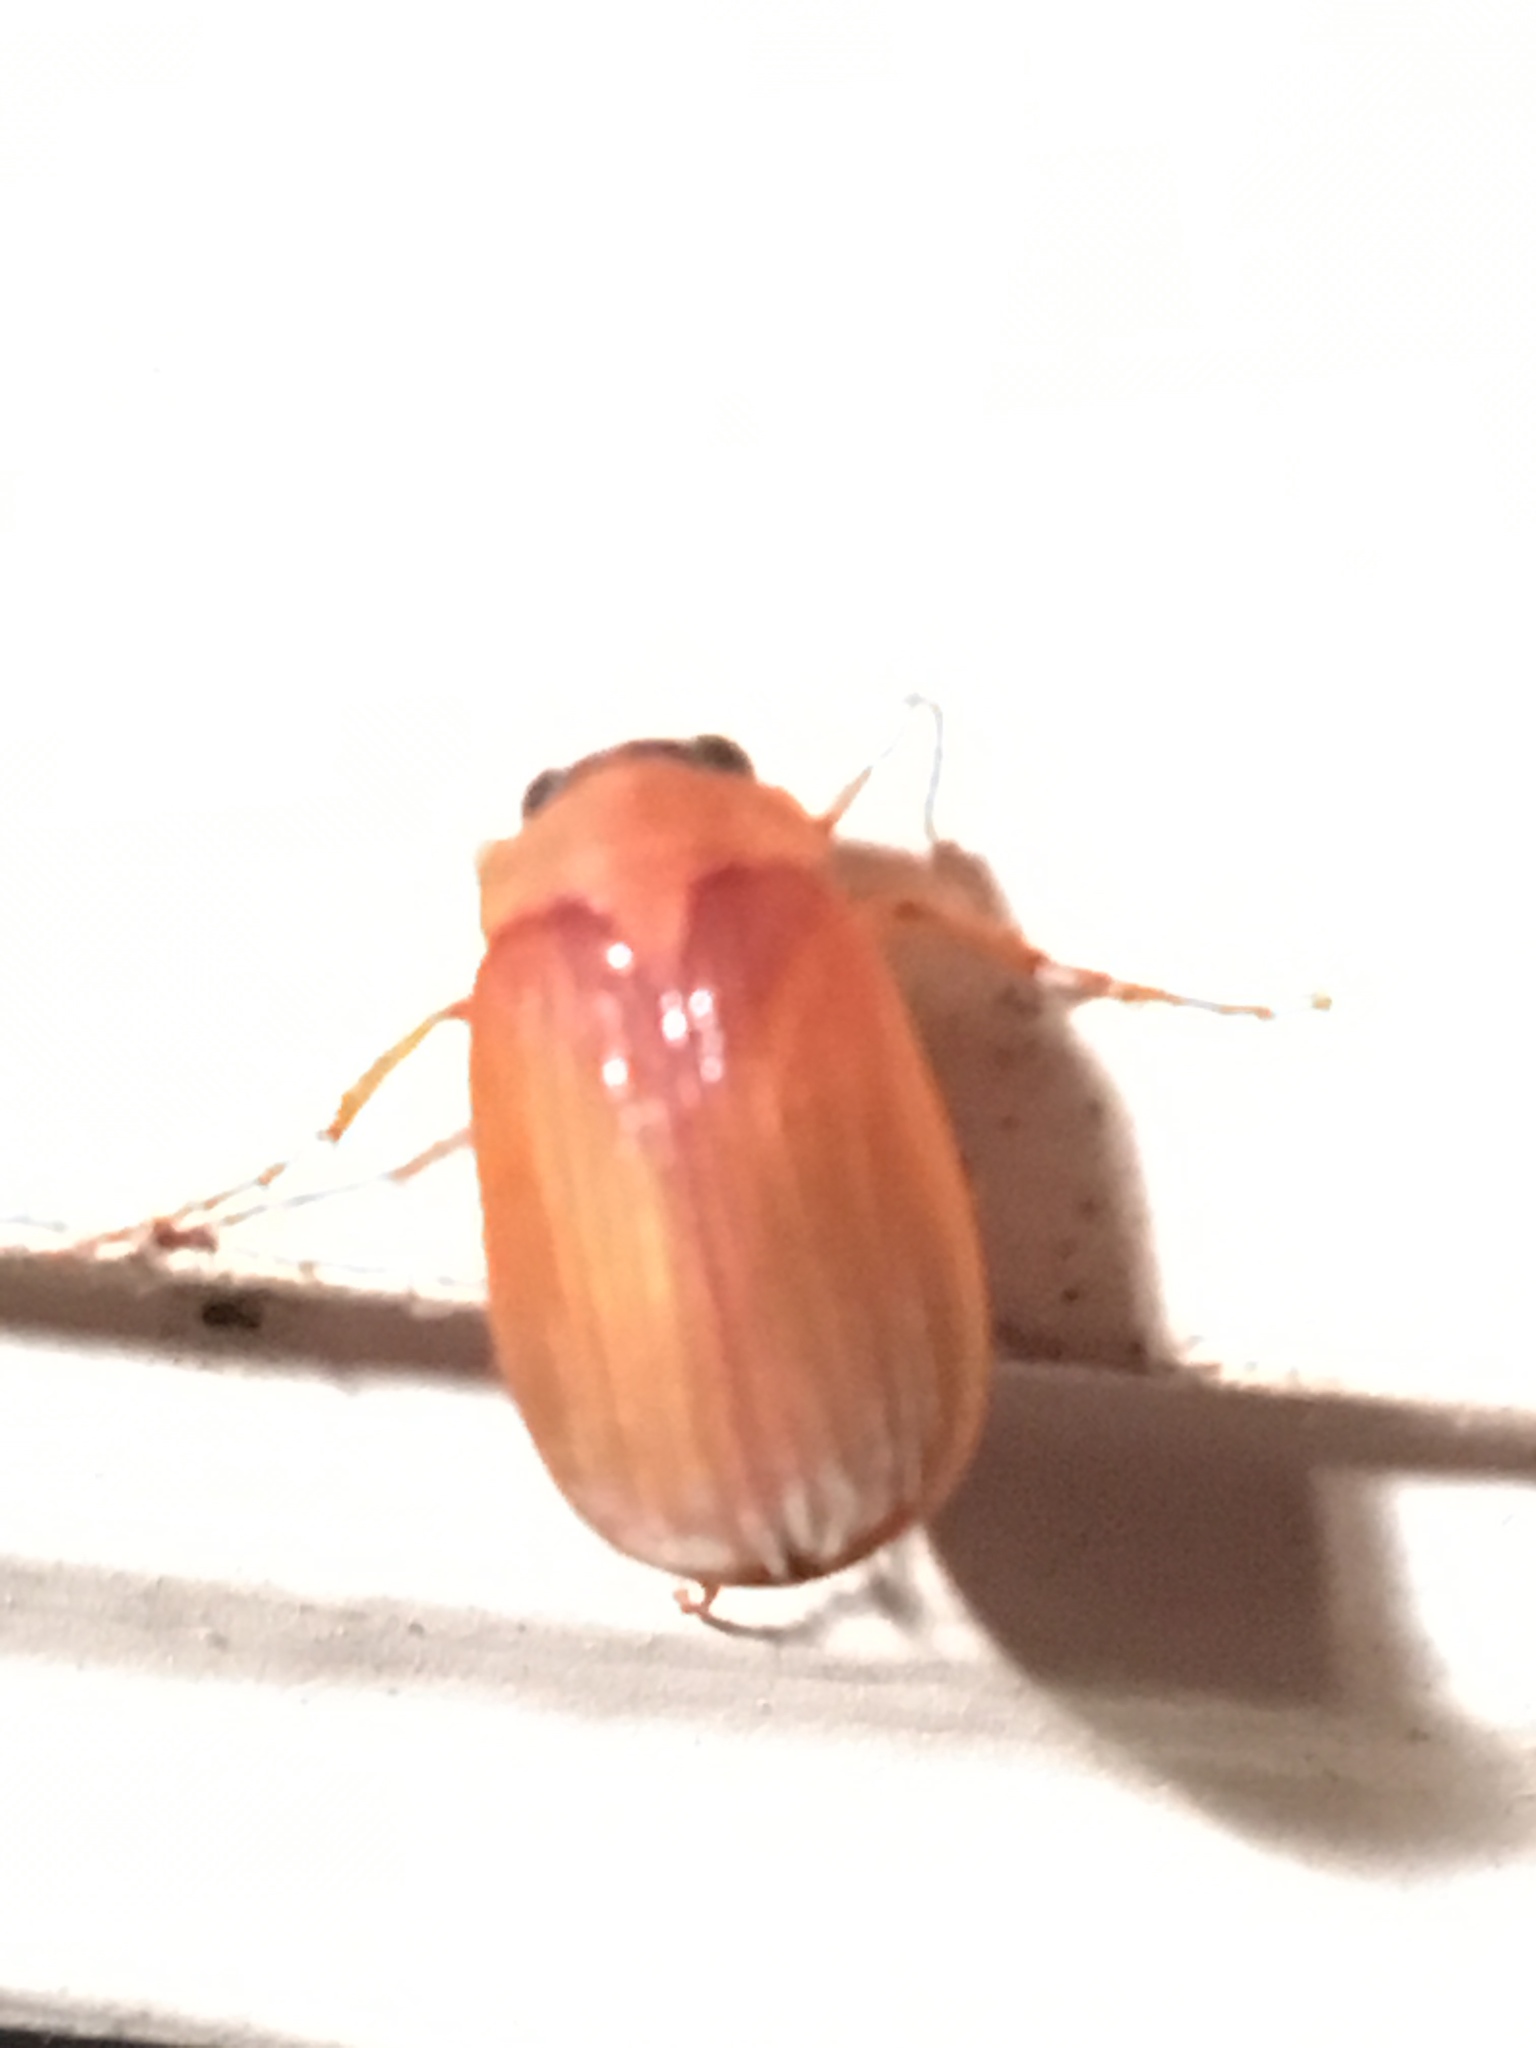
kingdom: Animalia
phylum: Arthropoda
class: Insecta
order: Coleoptera
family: Scarabaeidae
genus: Maladera
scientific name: Maladera formosae
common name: Asiatic garden beetle
